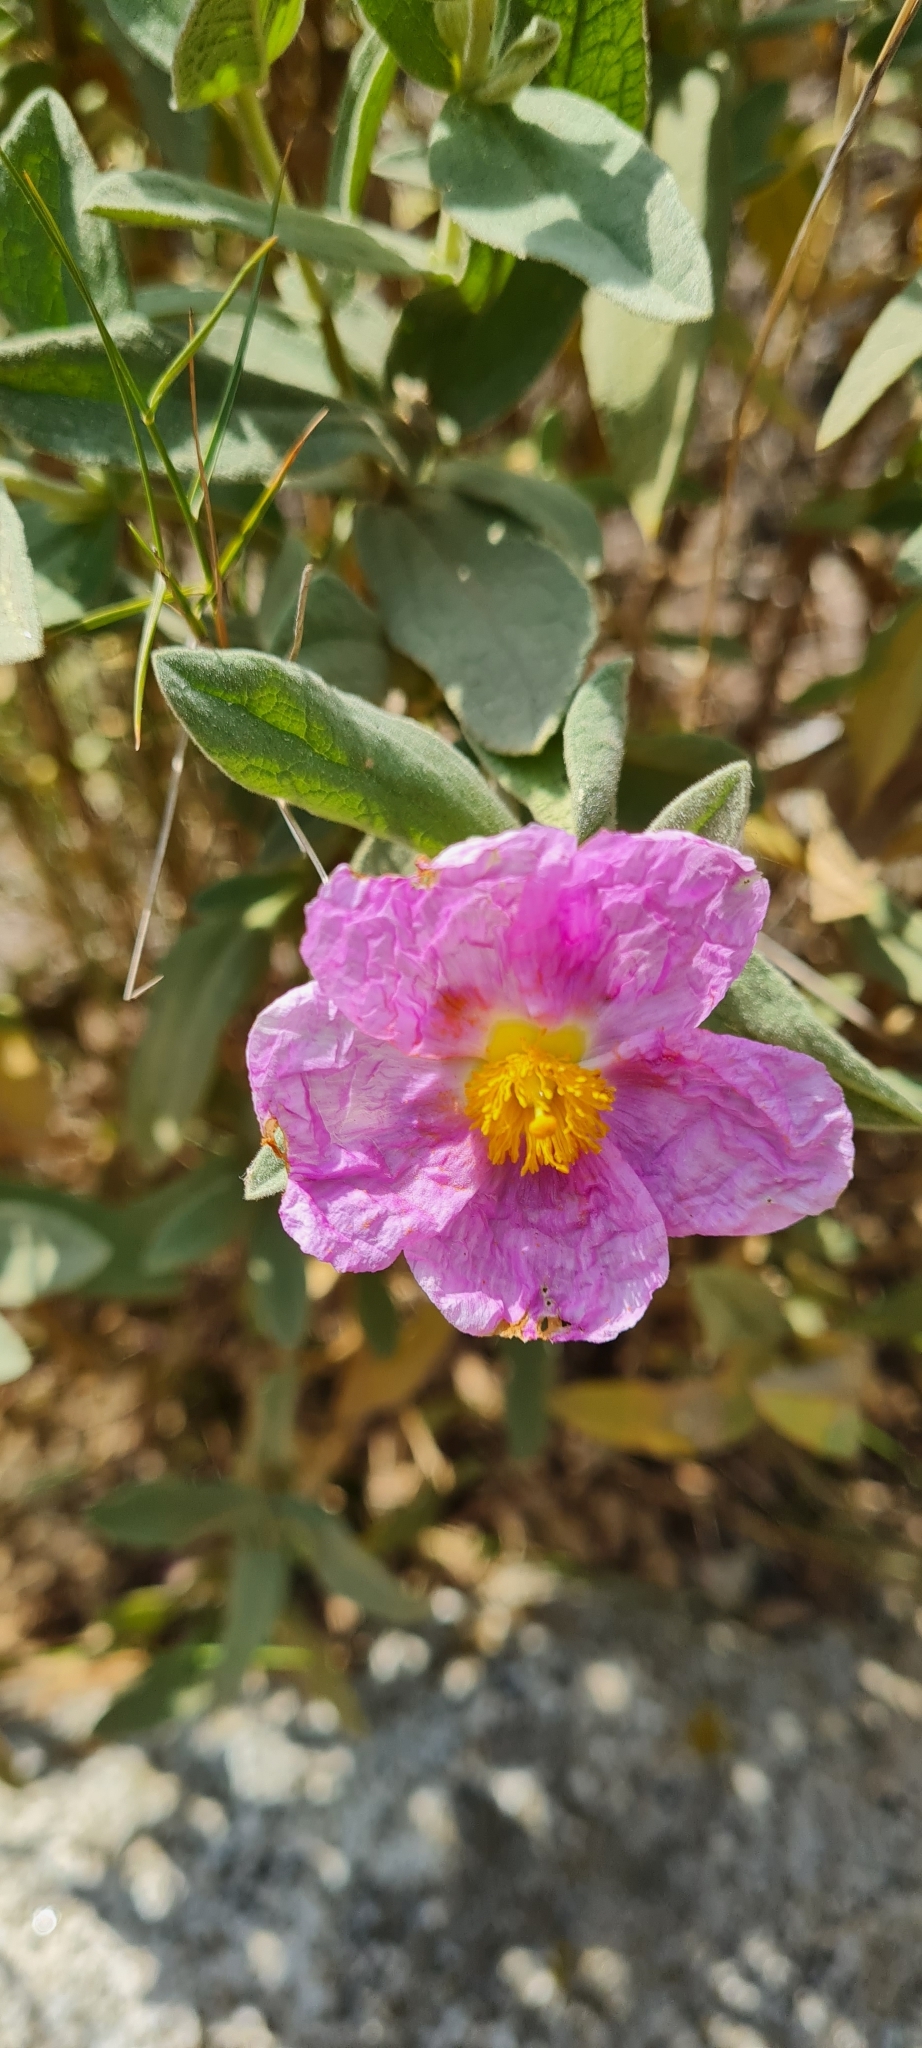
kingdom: Plantae
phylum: Tracheophyta
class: Magnoliopsida
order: Malvales
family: Cistaceae
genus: Cistus
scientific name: Cistus albidus
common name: White-leaf rock-rose
